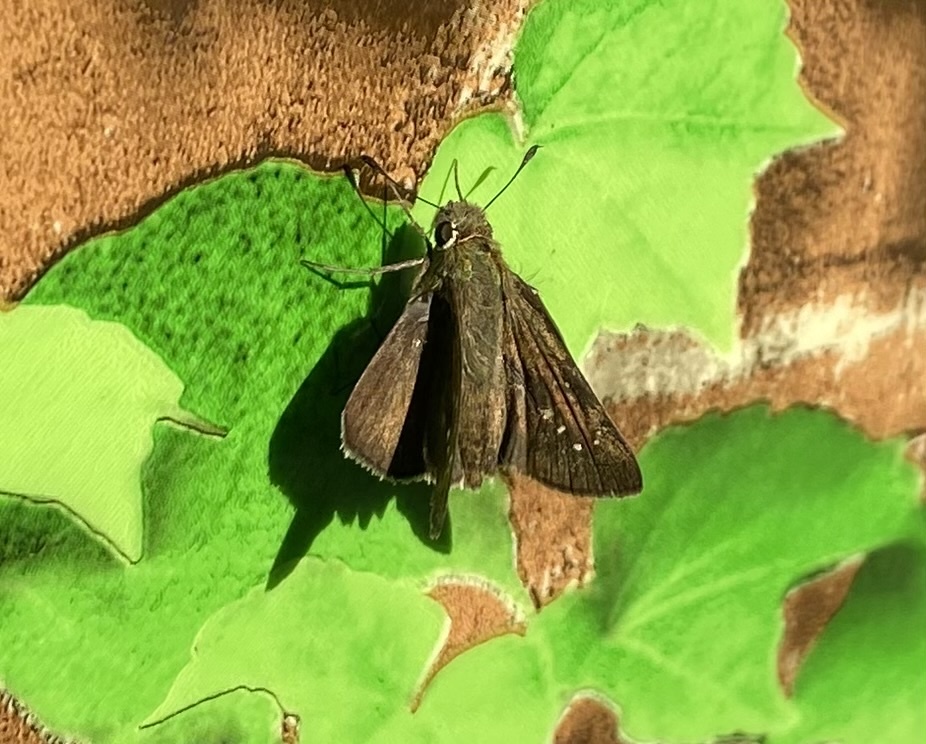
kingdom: Animalia
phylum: Arthropoda
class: Insecta
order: Lepidoptera
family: Hesperiidae
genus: Pelopidas
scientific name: Pelopidas mathias
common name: Black-branded swift
